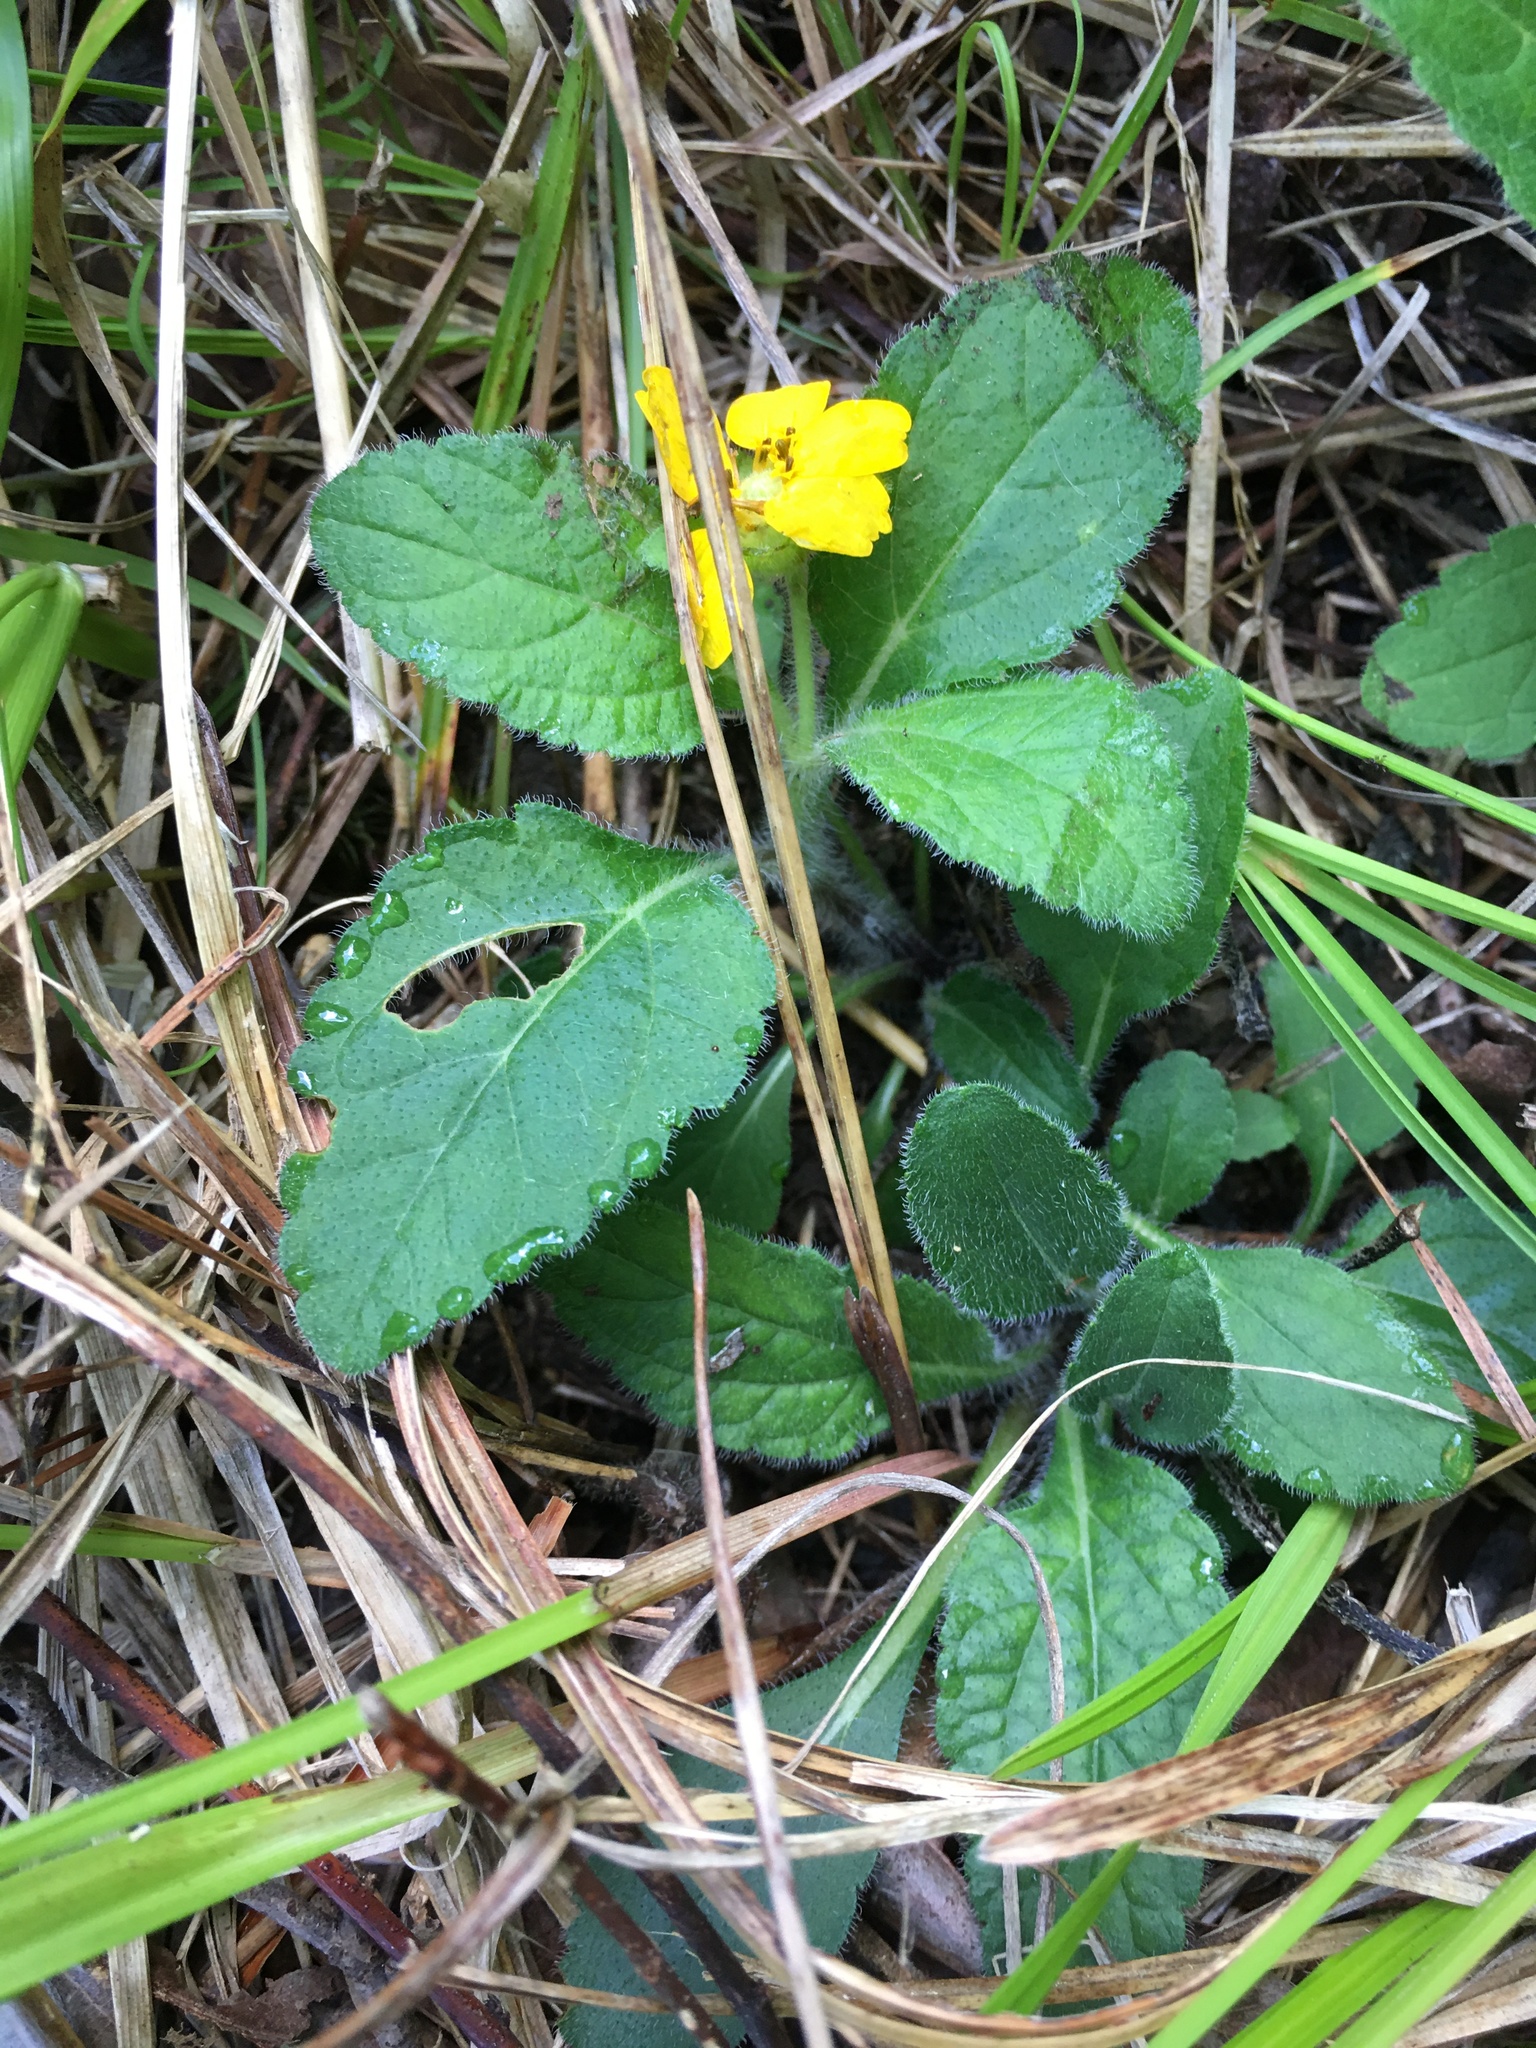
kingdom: Plantae
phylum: Tracheophyta
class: Magnoliopsida
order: Asterales
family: Asteraceae
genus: Chrysogonum
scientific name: Chrysogonum virginianum
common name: Golden-knee
